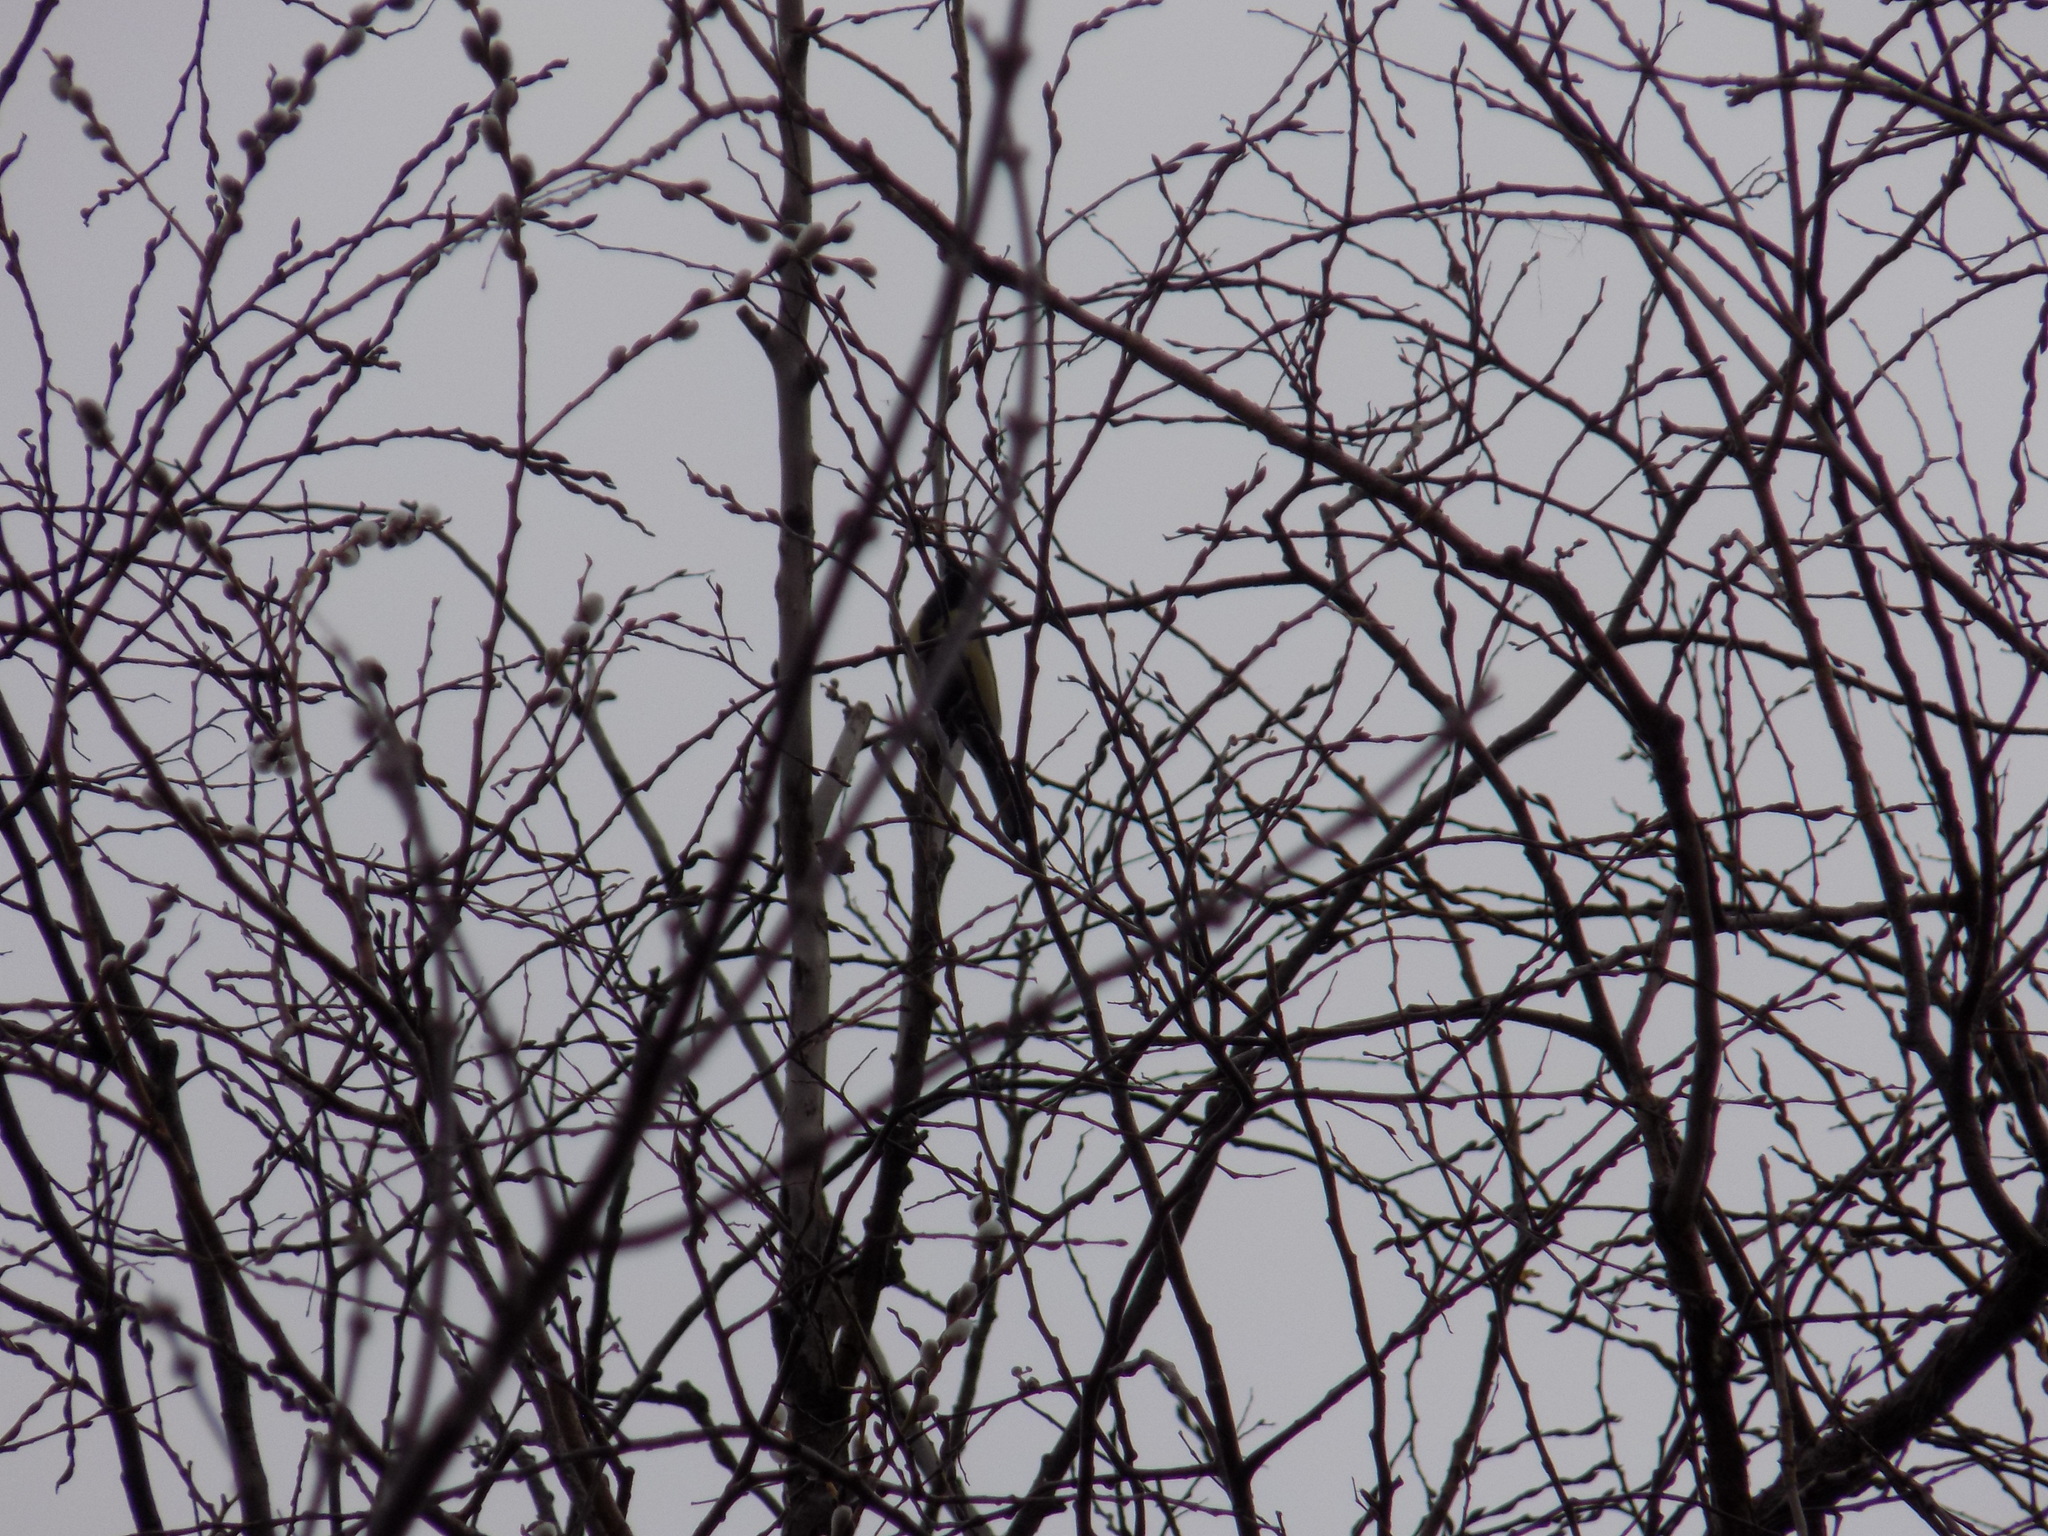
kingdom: Animalia
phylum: Chordata
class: Aves
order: Passeriformes
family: Paridae
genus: Parus
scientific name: Parus major
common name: Great tit
